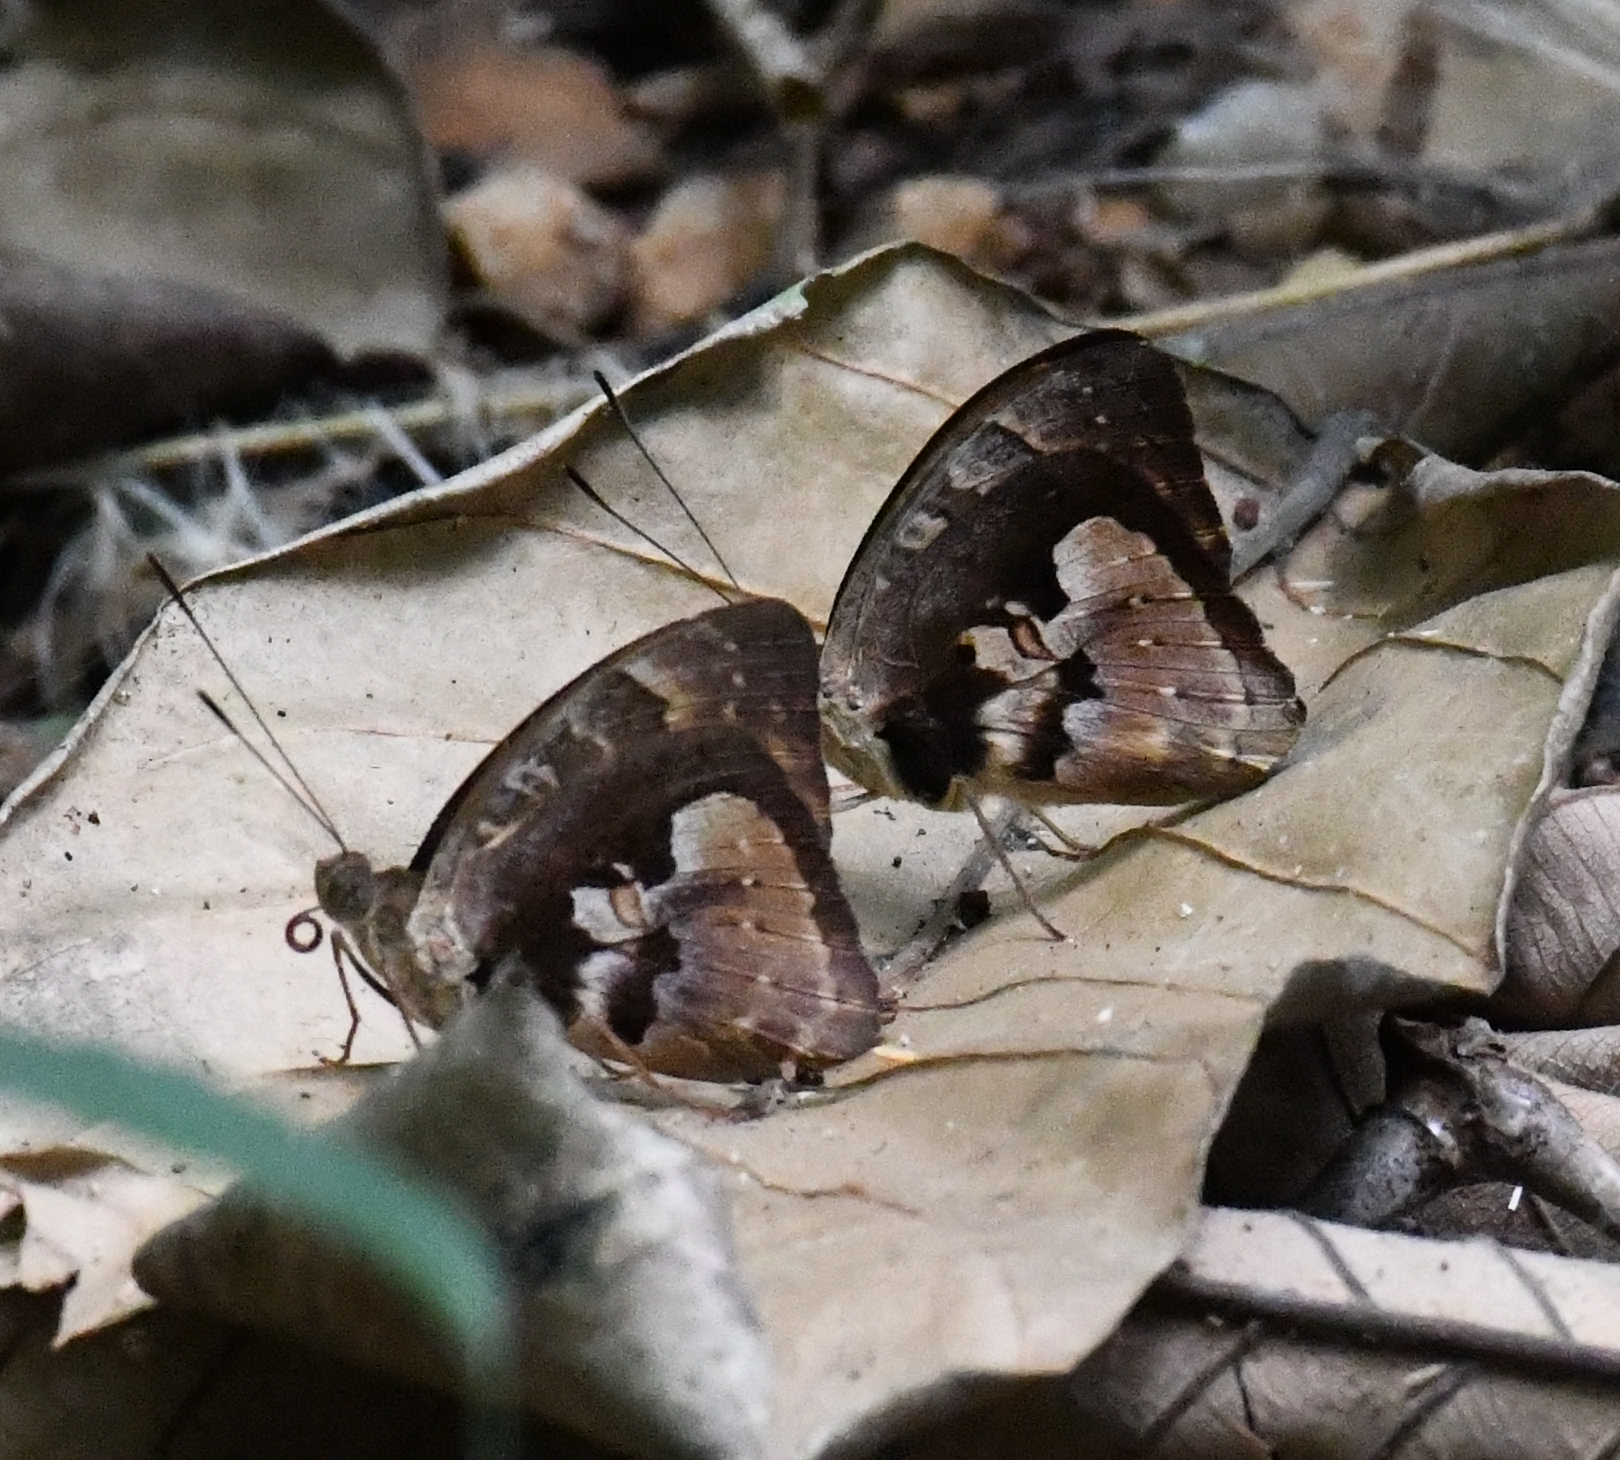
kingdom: Animalia
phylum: Arthropoda
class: Insecta
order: Lepidoptera
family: Nymphalidae
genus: Euriphene
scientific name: Euriphene gambiae
